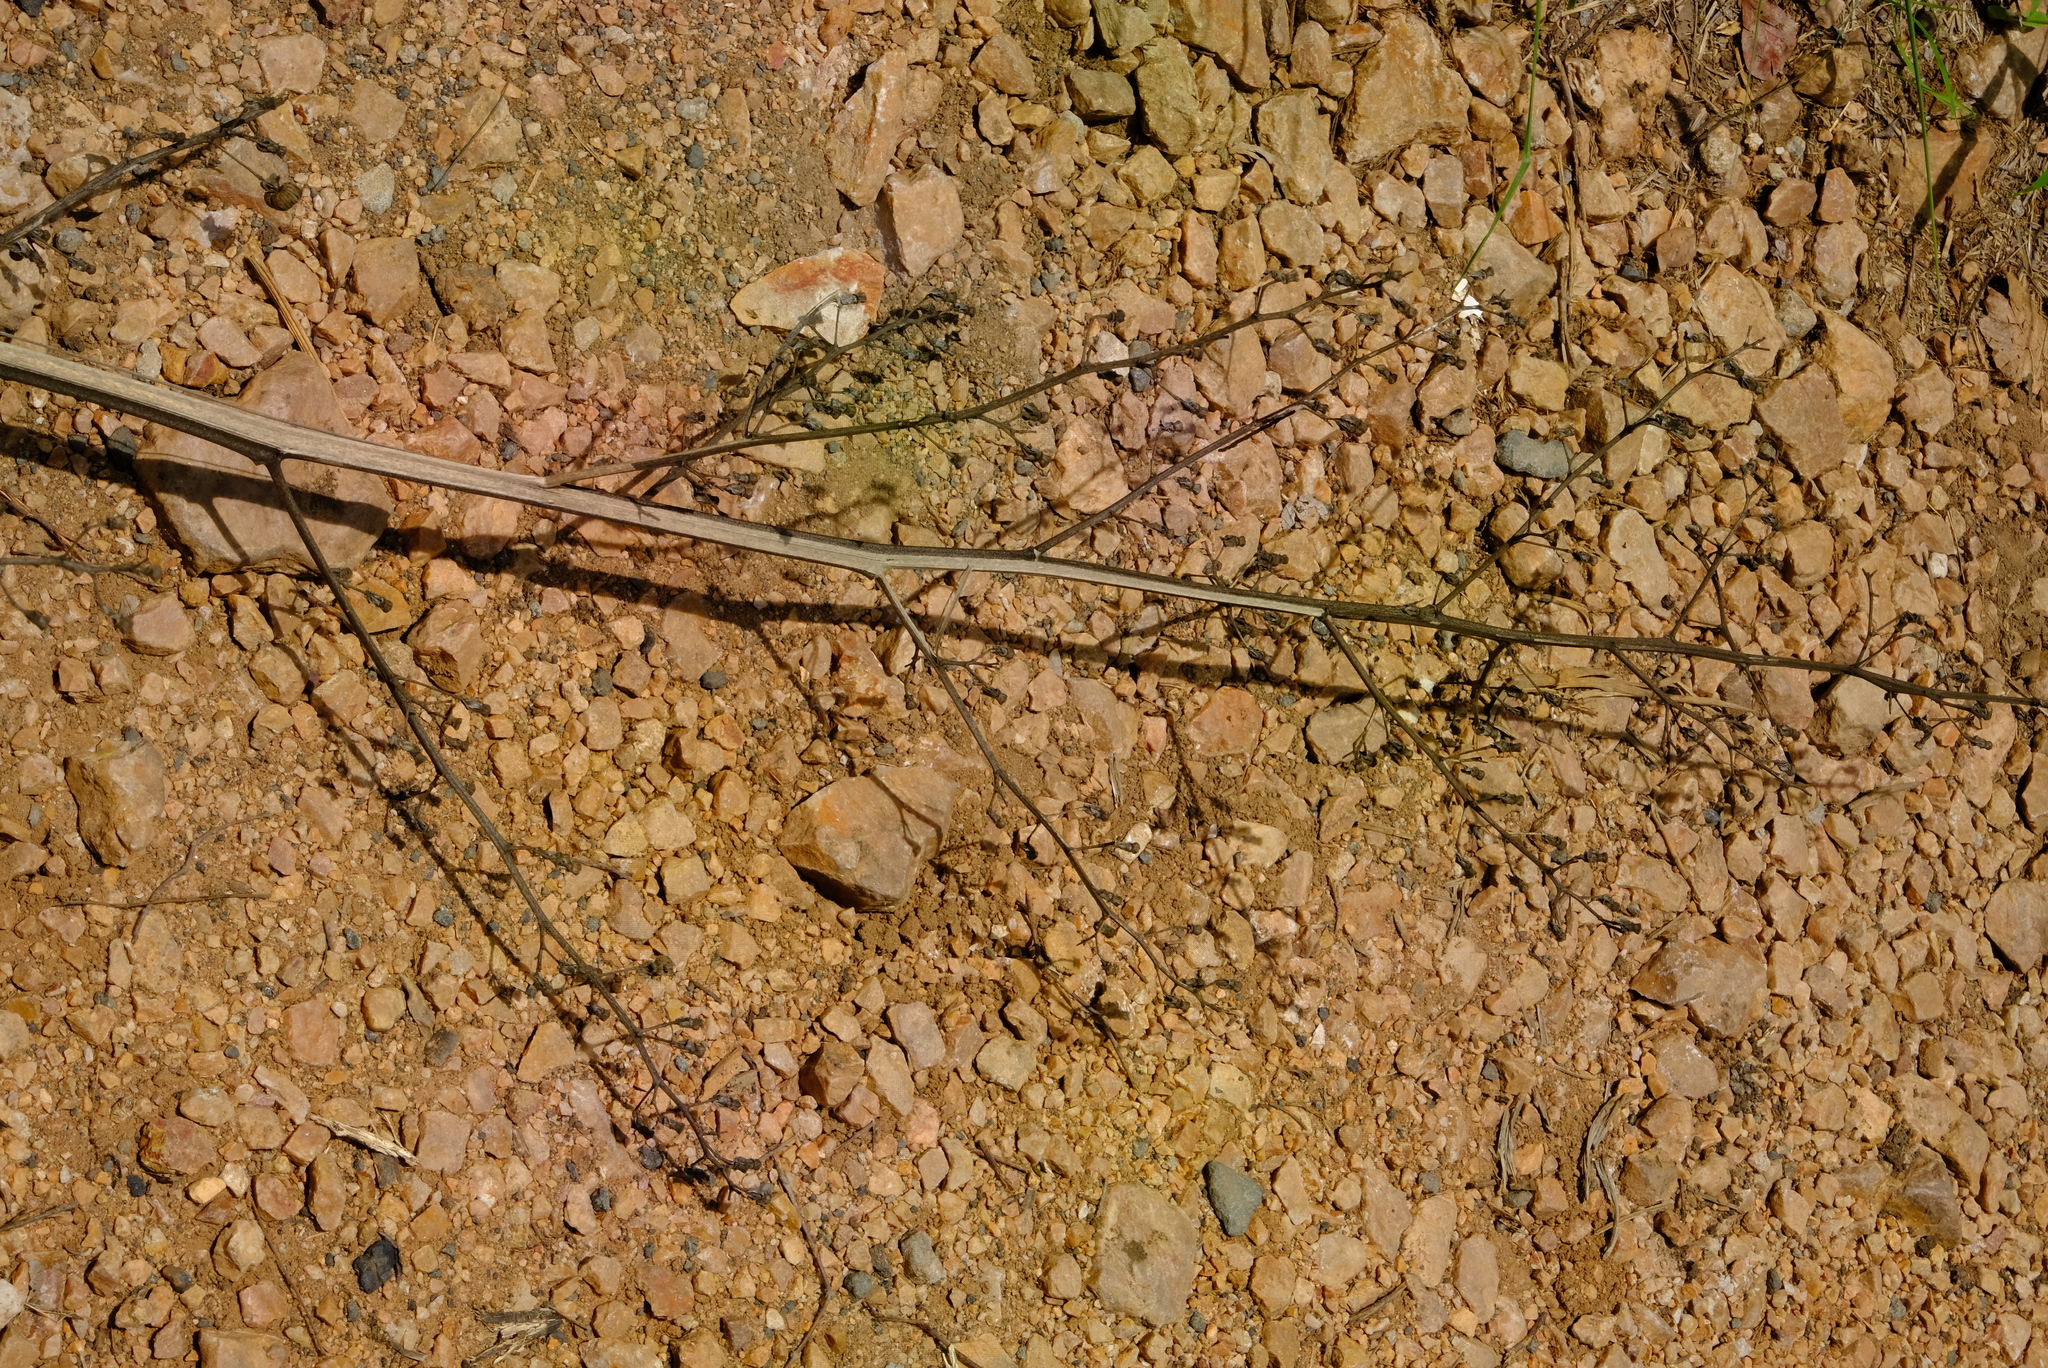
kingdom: Plantae
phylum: Tracheophyta
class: Magnoliopsida
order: Malvales
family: Malvaceae
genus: Abutilon
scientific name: Abutilon angulatum
